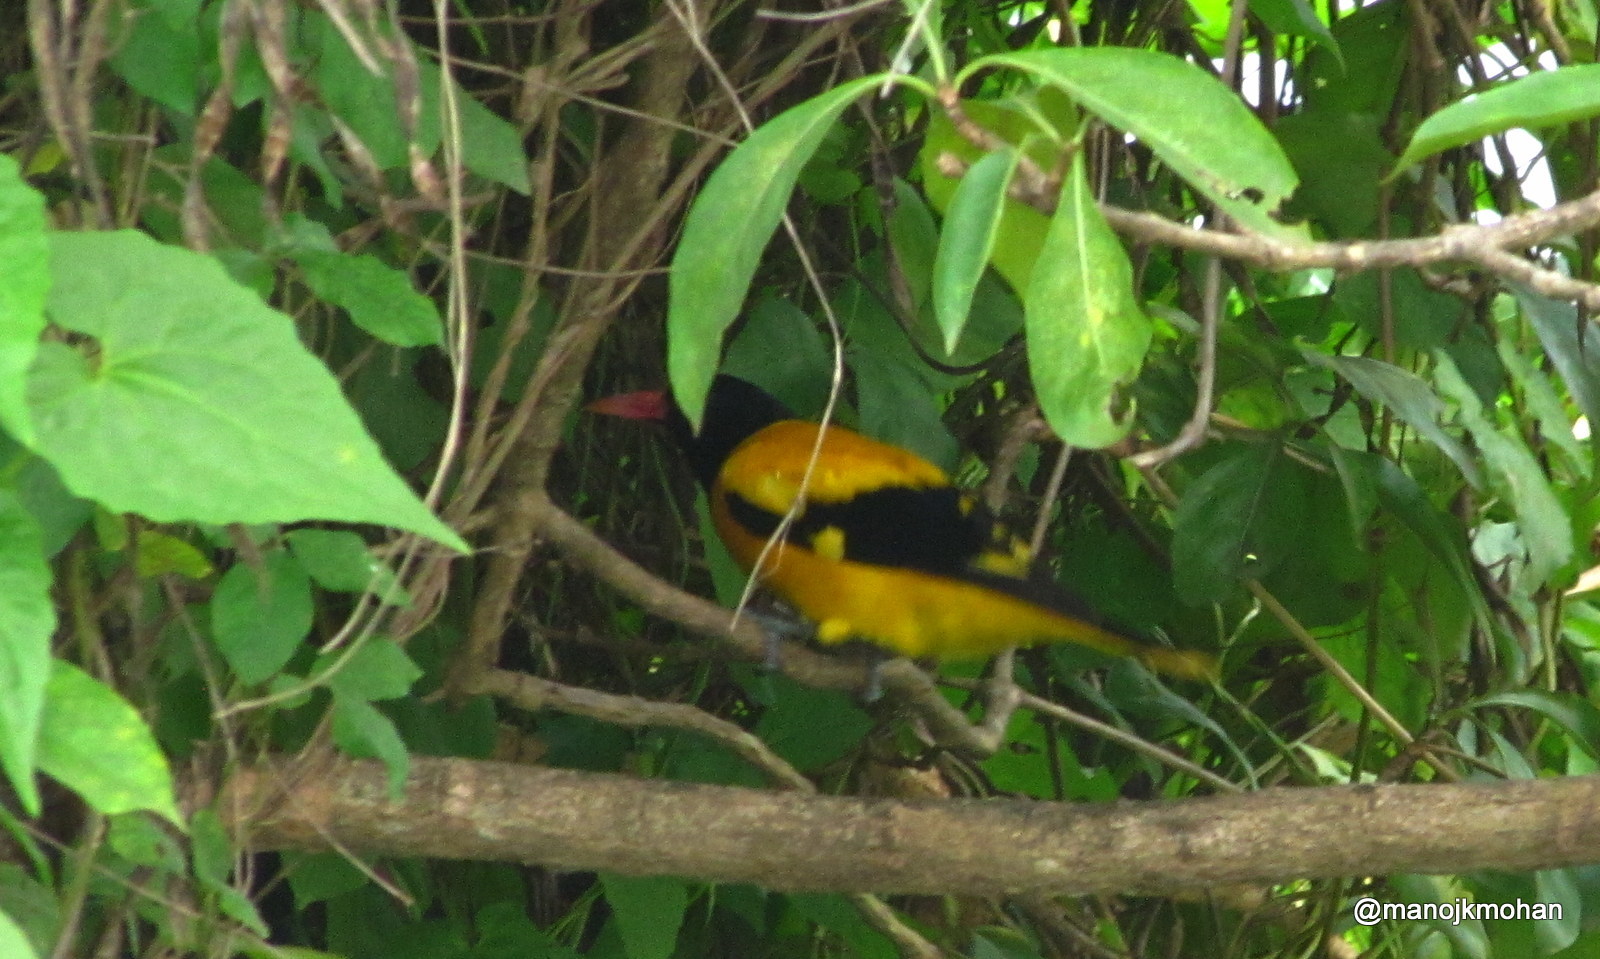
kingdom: Animalia
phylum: Chordata
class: Aves
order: Passeriformes
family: Oriolidae
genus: Oriolus
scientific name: Oriolus xanthornus
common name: Black-hooded oriole
